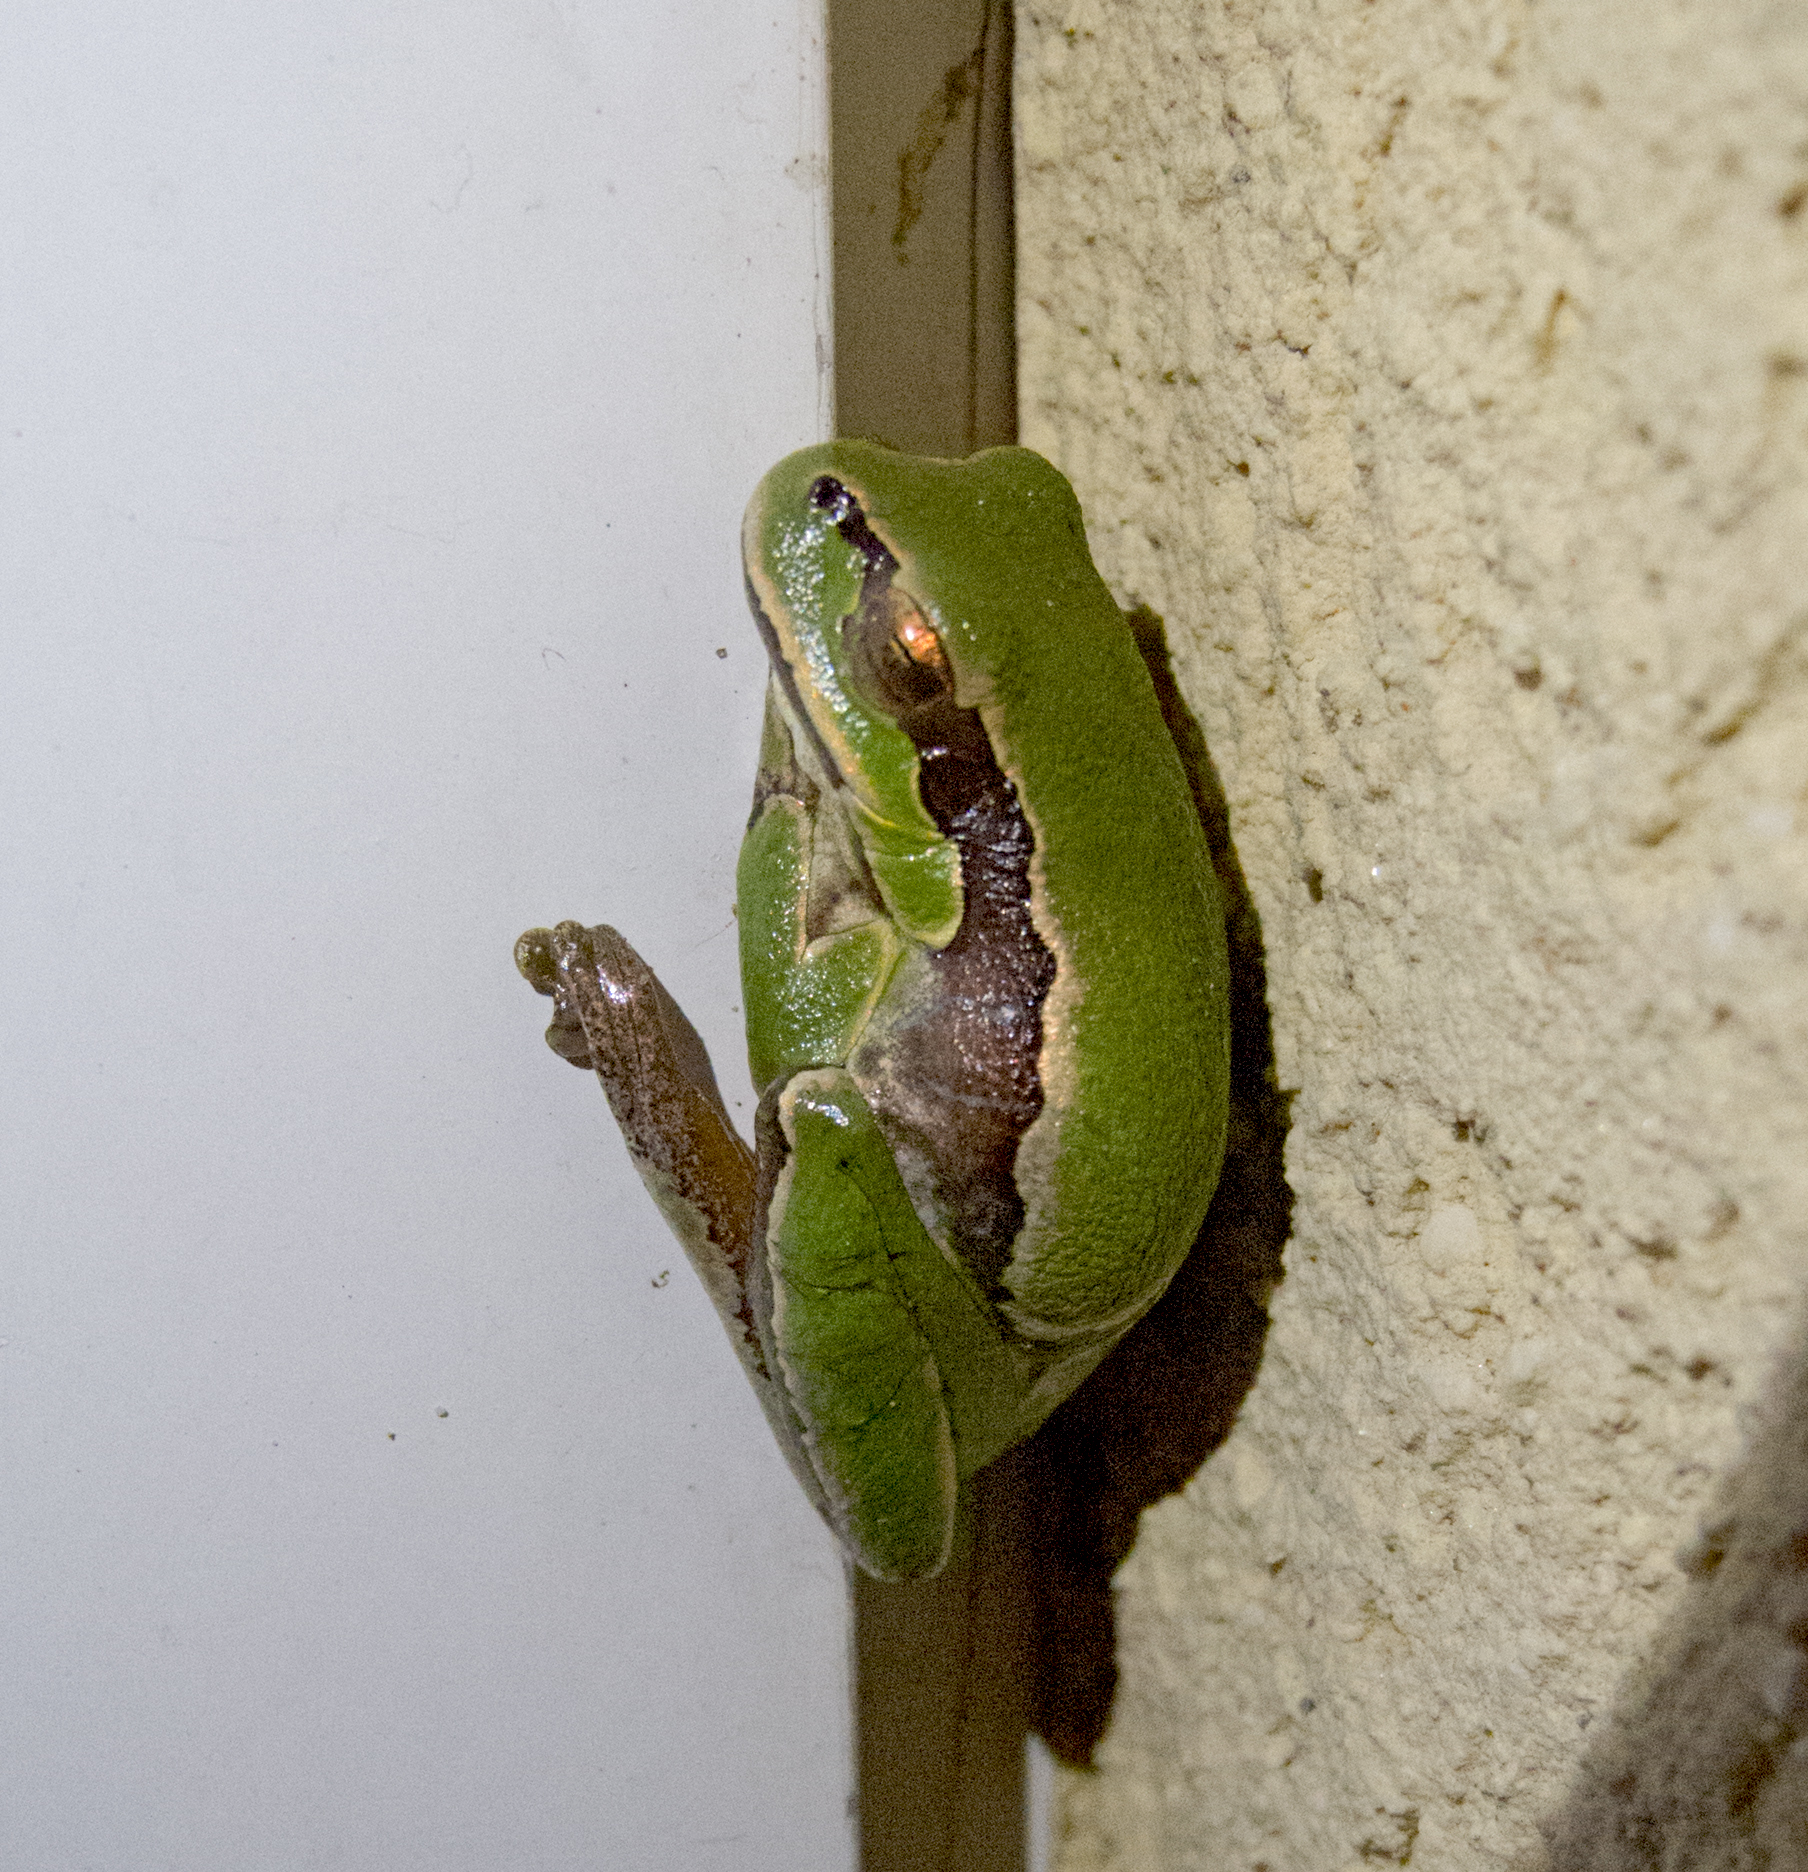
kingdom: Animalia
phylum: Chordata
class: Amphibia
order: Anura
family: Hylidae
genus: Hyla
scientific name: Hyla orientalis
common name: Caucasian treefrog
